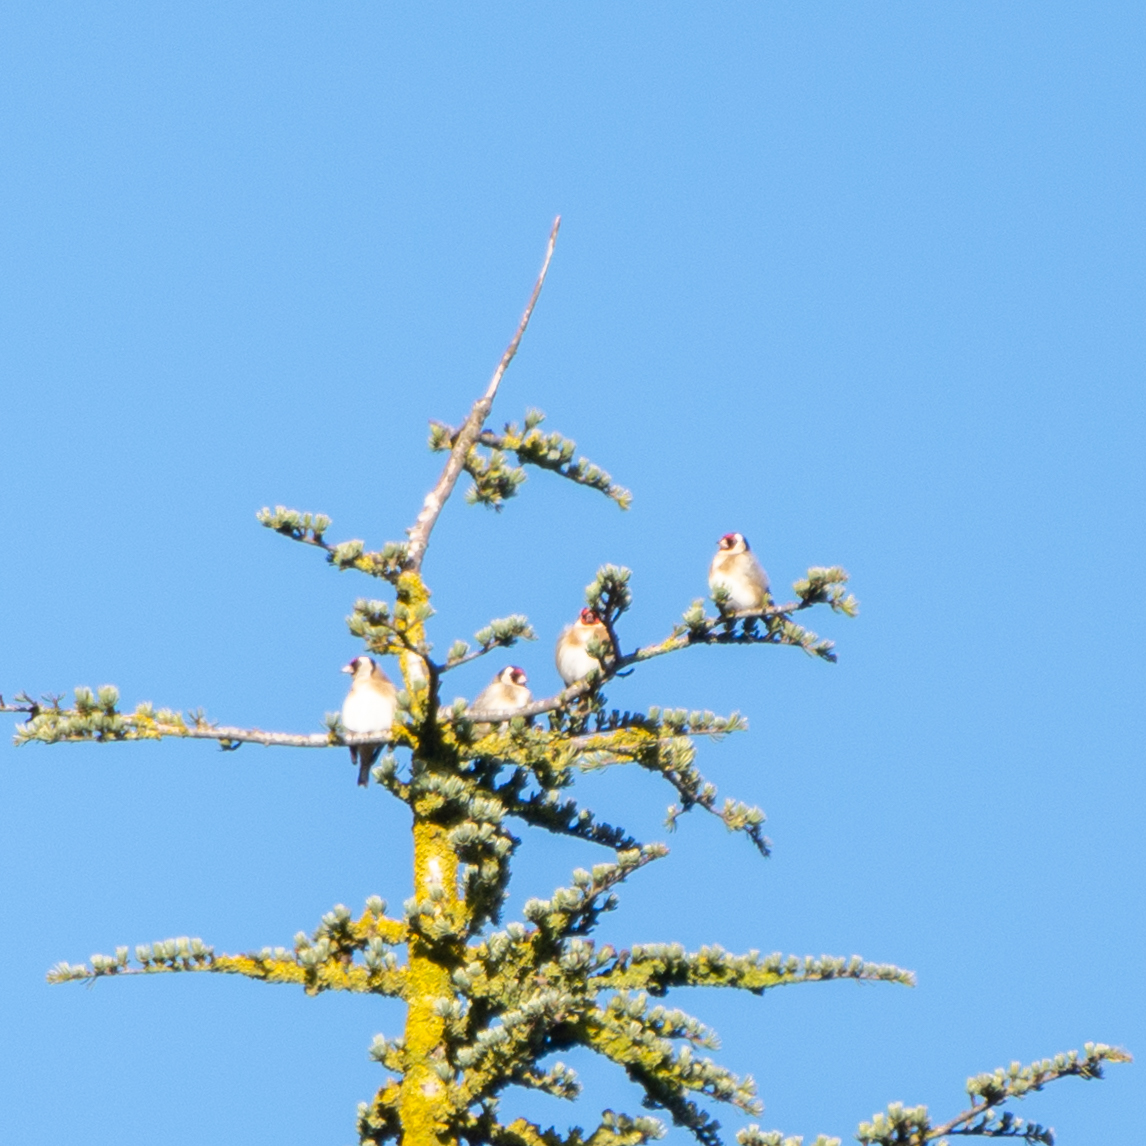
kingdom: Animalia
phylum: Chordata
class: Aves
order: Passeriformes
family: Fringillidae
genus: Carduelis
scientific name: Carduelis carduelis
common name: European goldfinch
